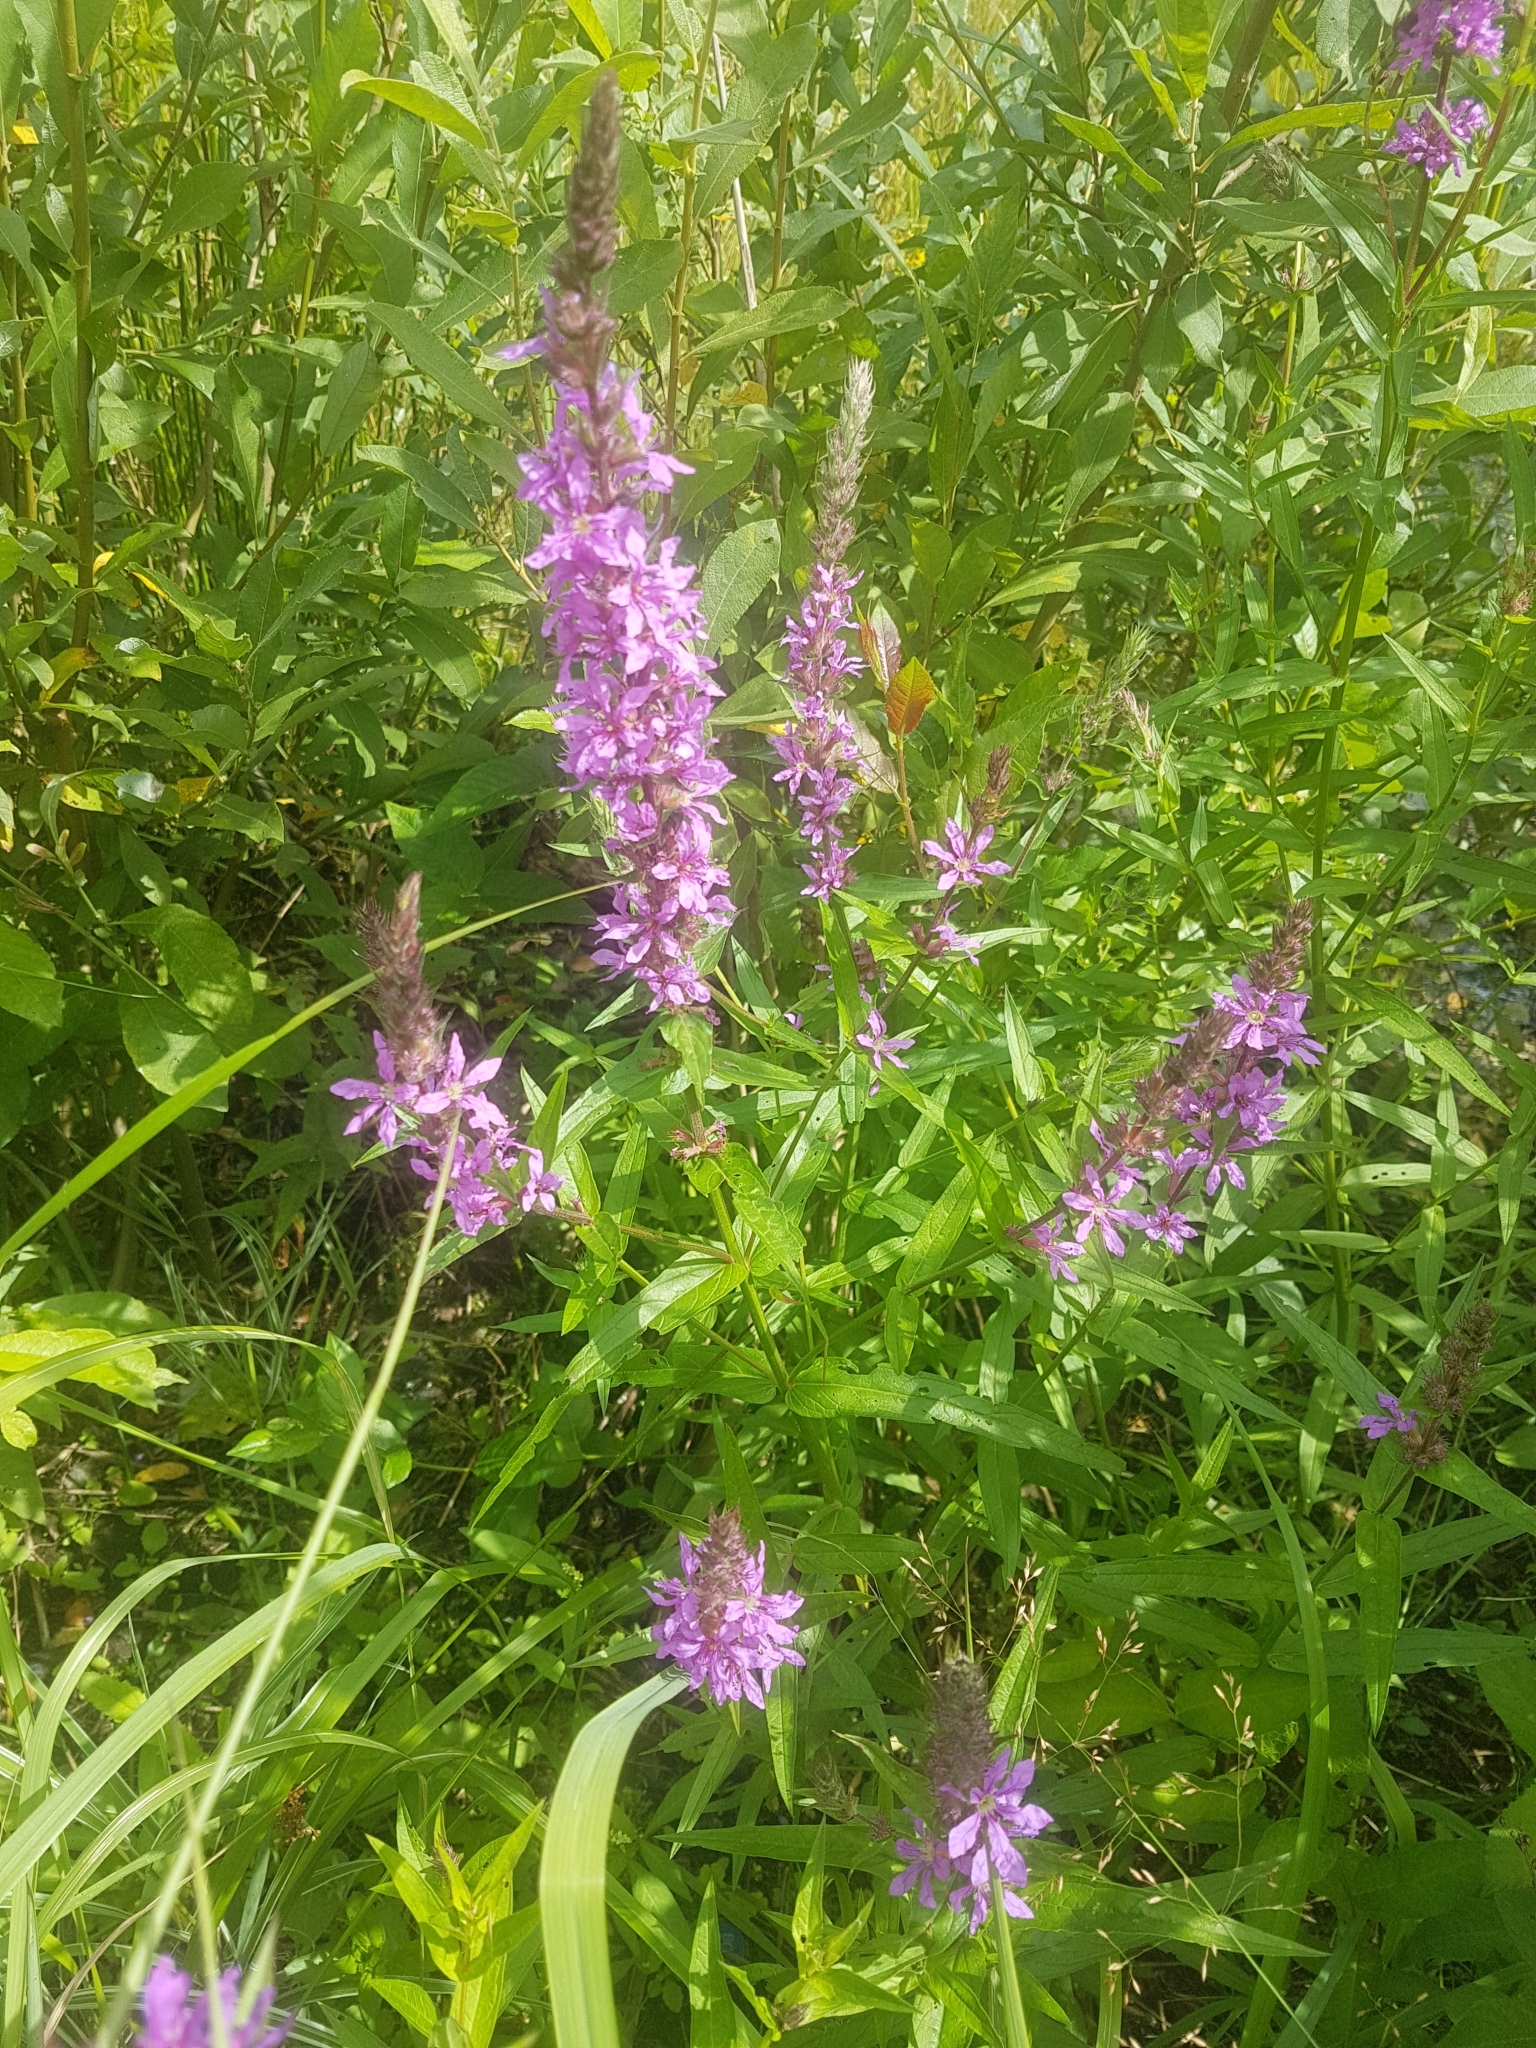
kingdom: Plantae
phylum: Tracheophyta
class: Magnoliopsida
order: Myrtales
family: Lythraceae
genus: Lythrum
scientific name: Lythrum salicaria
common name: Purple loosestrife
